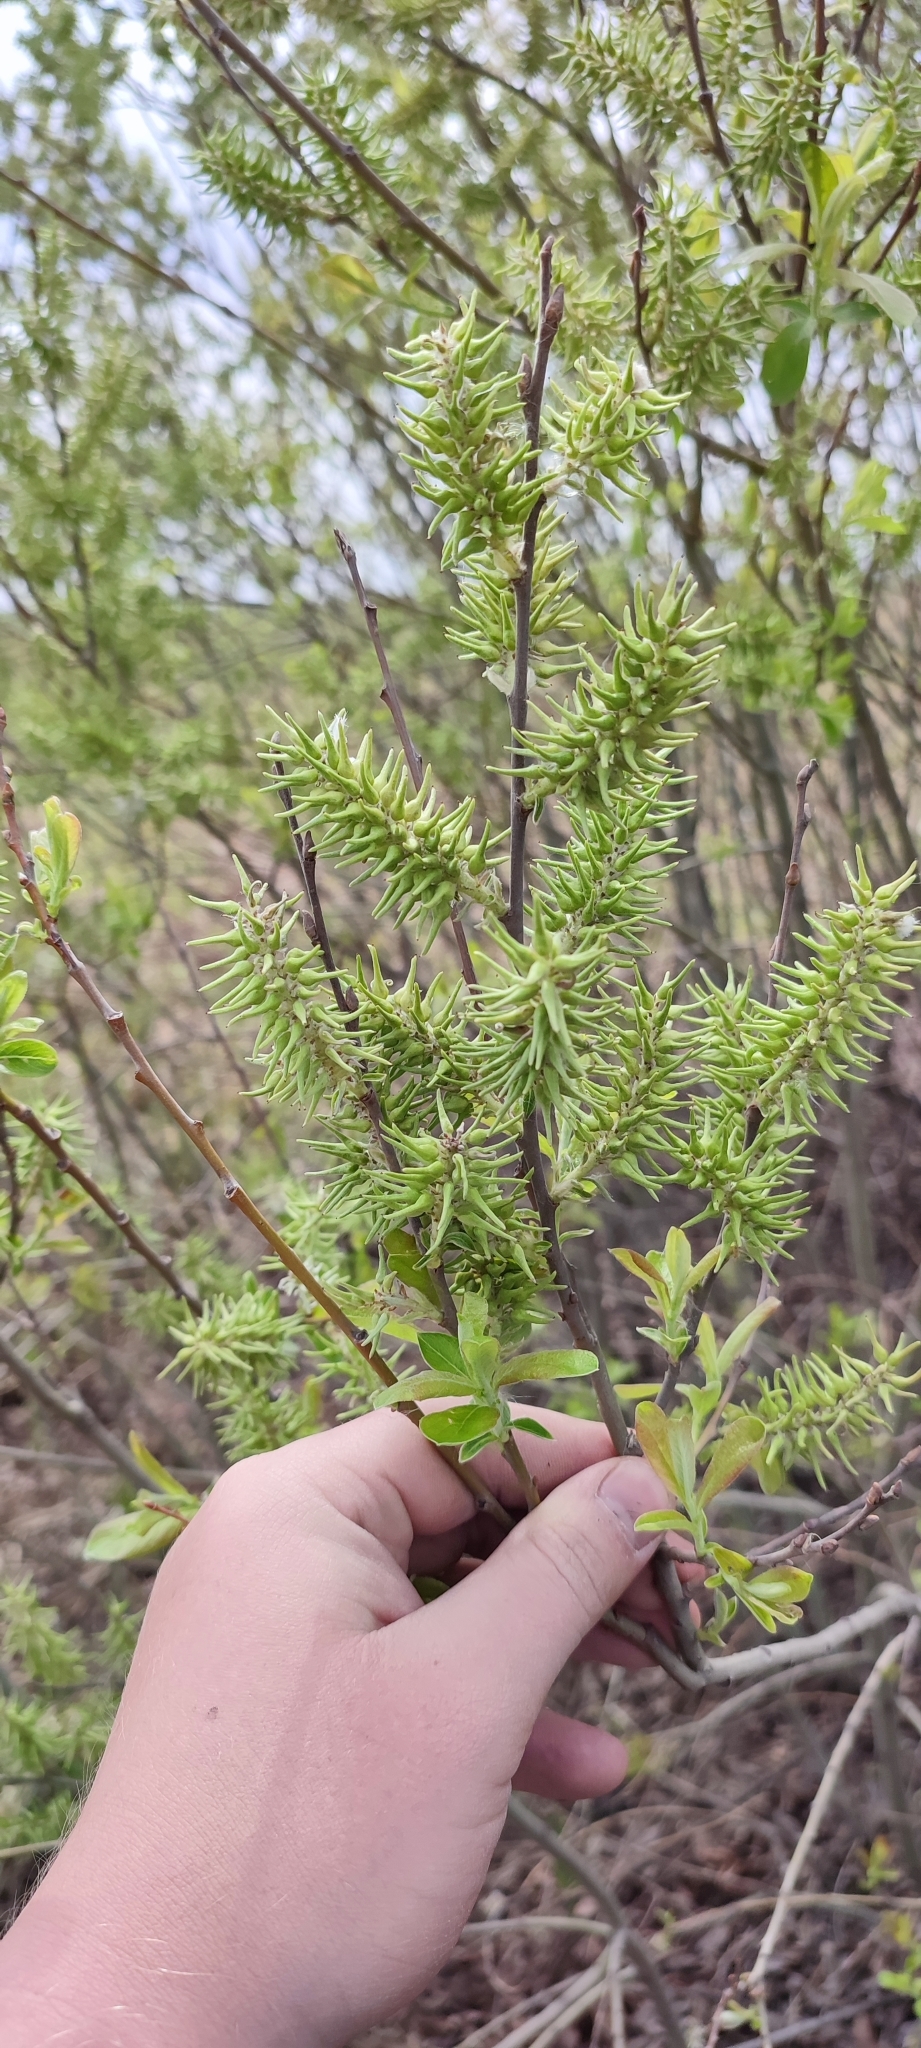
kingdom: Plantae
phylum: Tracheophyta
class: Magnoliopsida
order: Malpighiales
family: Salicaceae
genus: Salix
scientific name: Salix cinerea
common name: Common sallow
